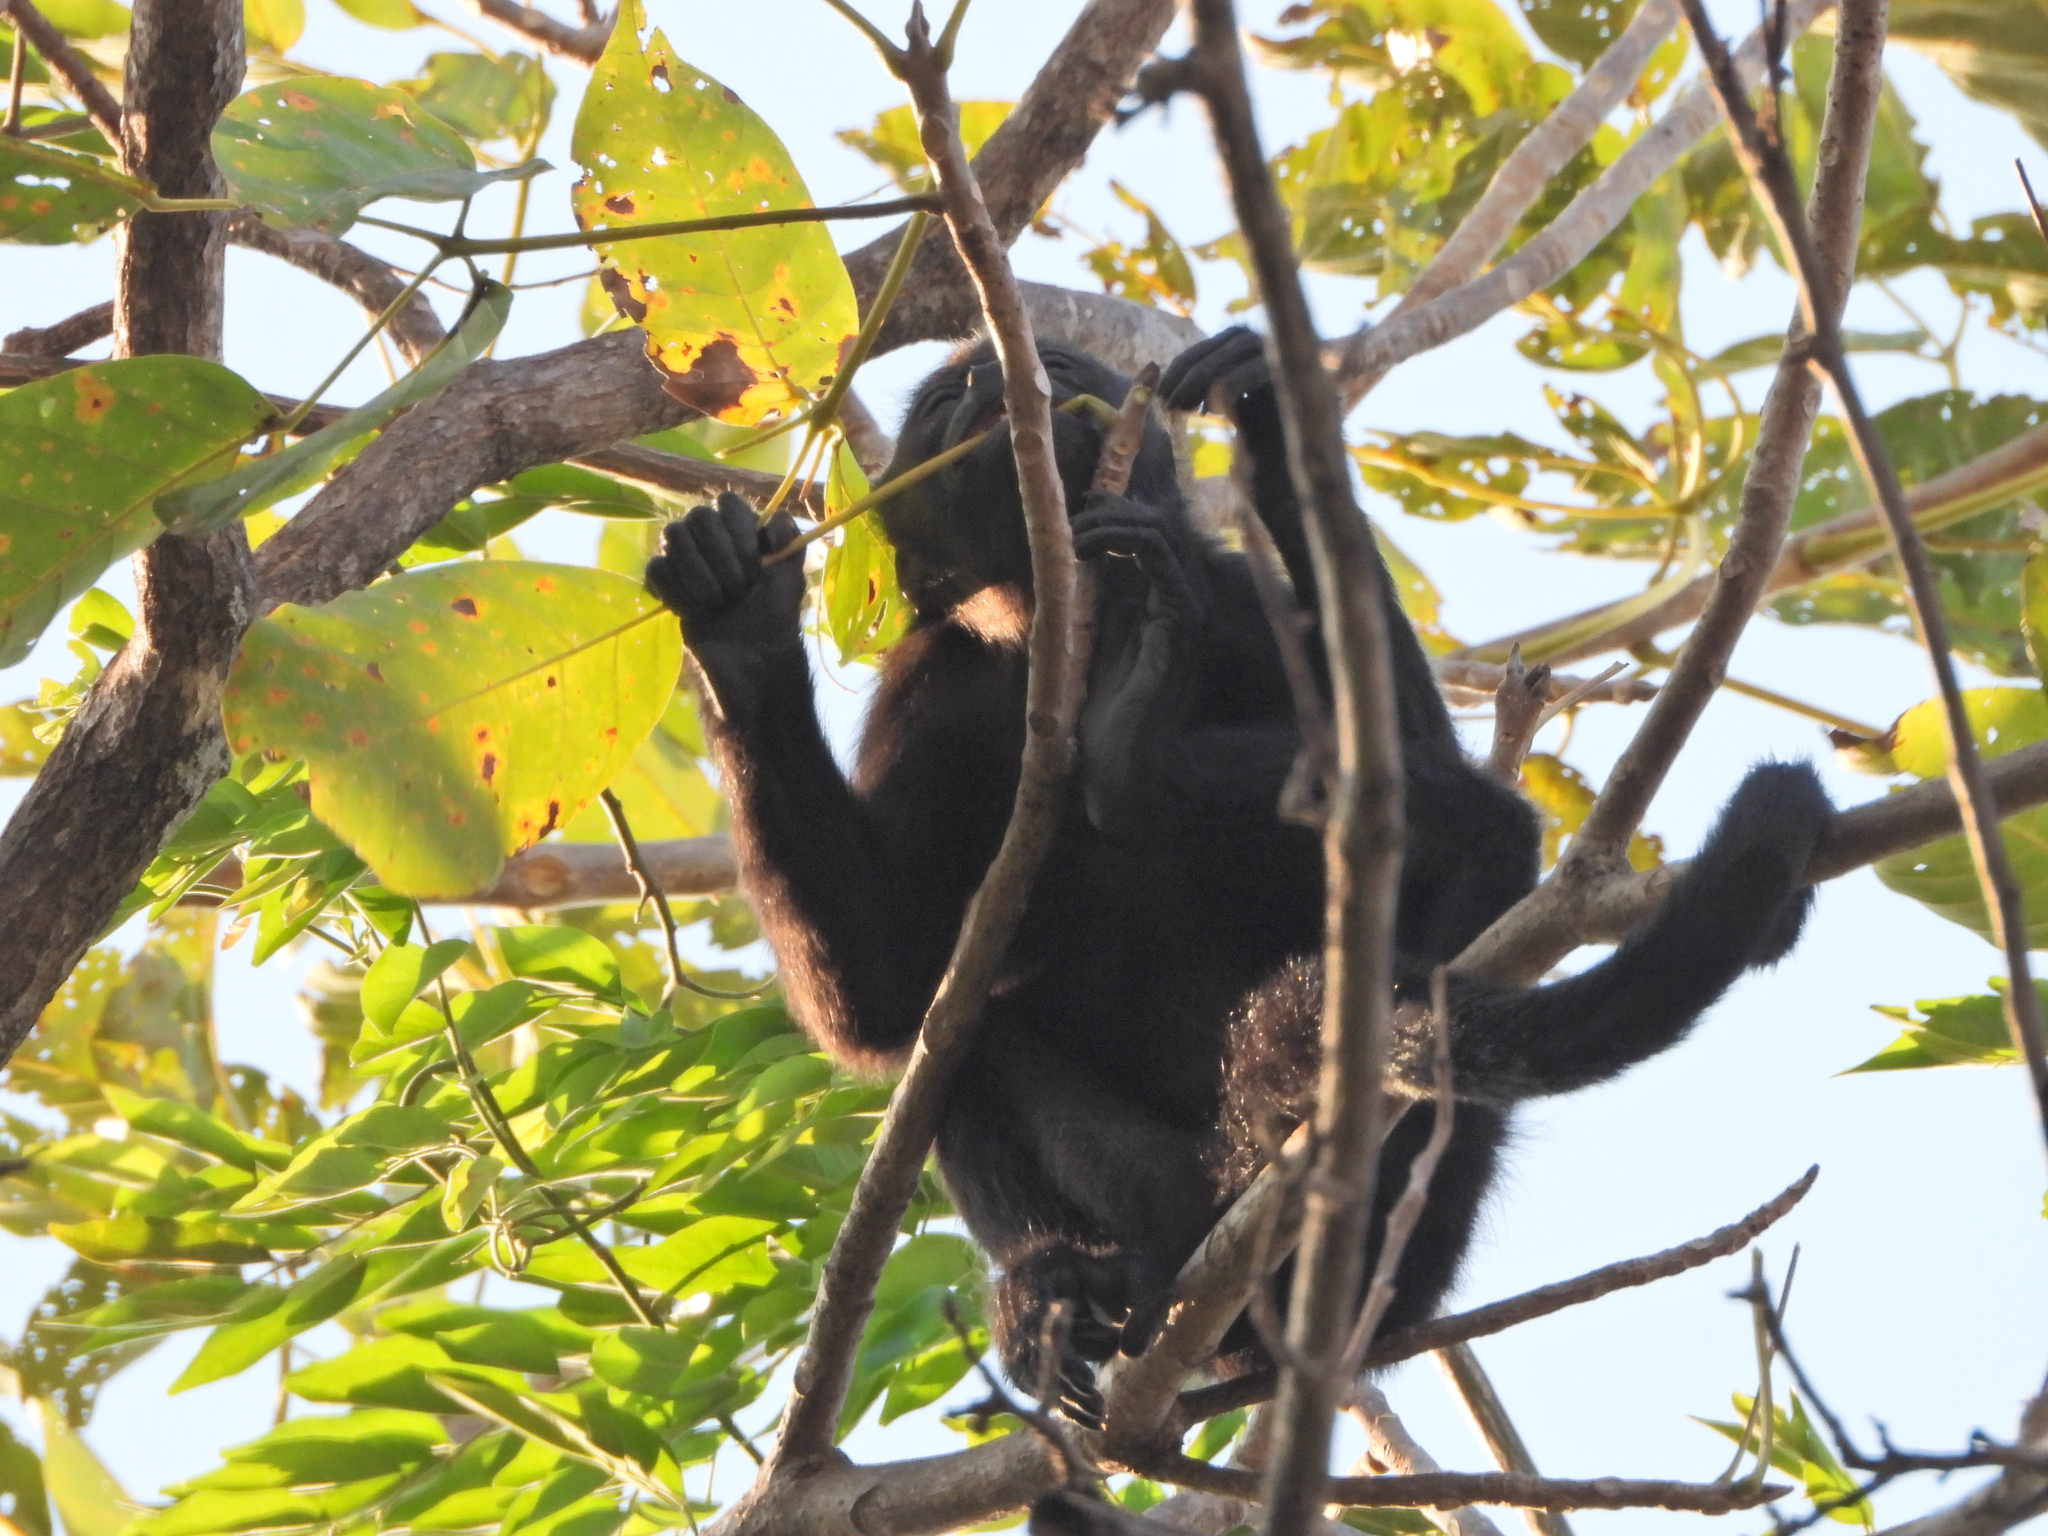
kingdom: Animalia
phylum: Chordata
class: Mammalia
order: Primates
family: Atelidae
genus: Alouatta
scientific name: Alouatta palliata
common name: Mantled howler
